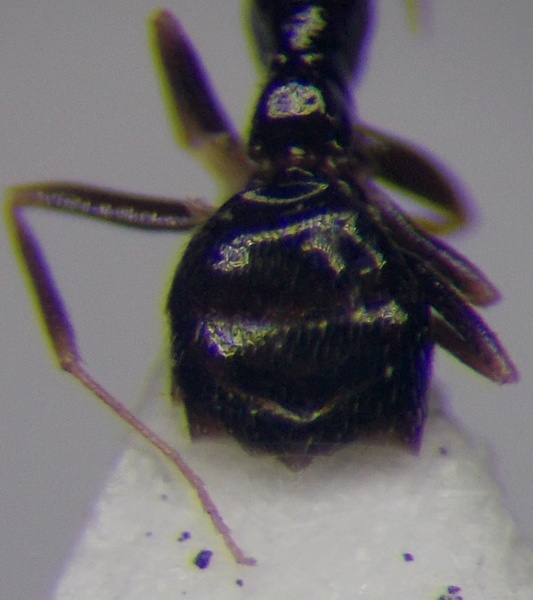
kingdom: Animalia
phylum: Arthropoda
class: Insecta
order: Hymenoptera
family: Formicidae
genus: Plagiolepis
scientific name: Plagiolepis pallescens
